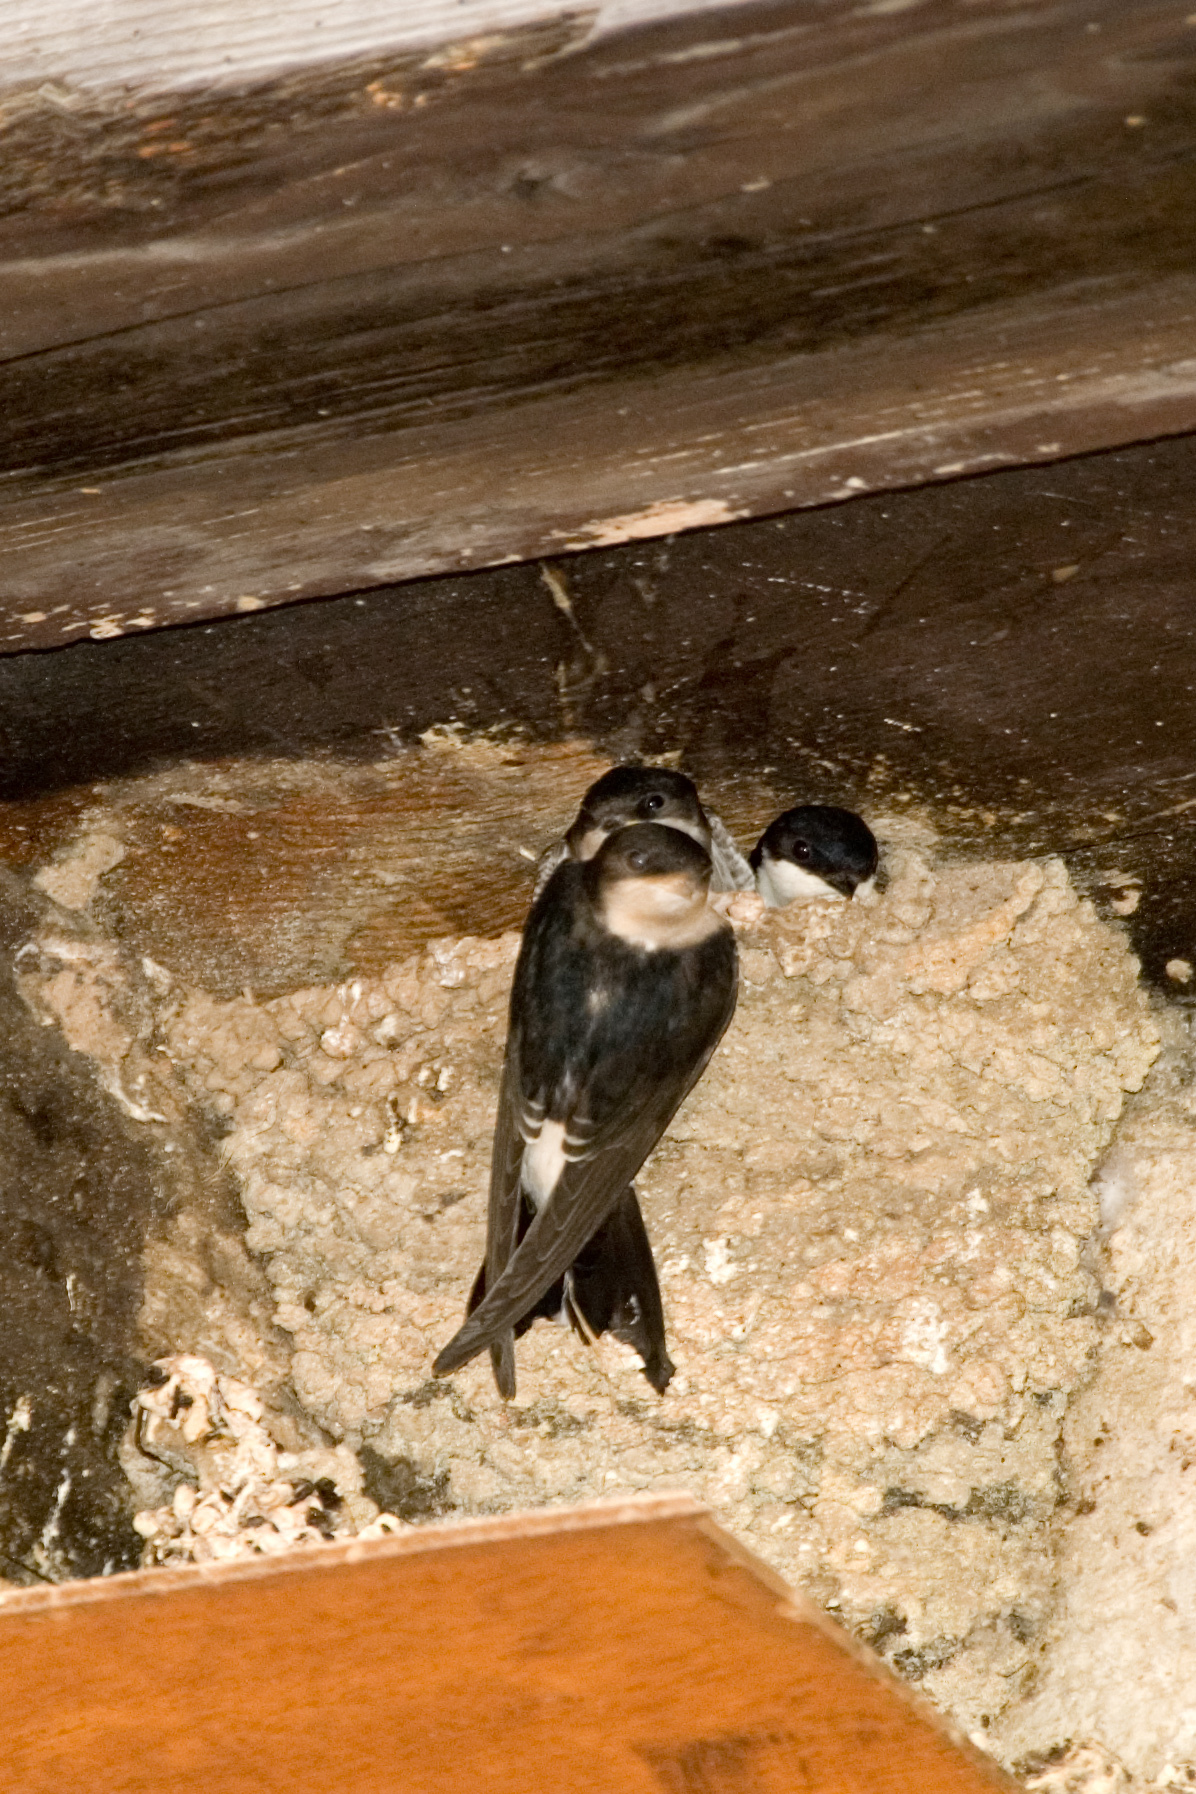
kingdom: Animalia
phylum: Chordata
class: Aves
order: Passeriformes
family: Hirundinidae
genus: Delichon
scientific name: Delichon urbicum
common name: Common house martin
